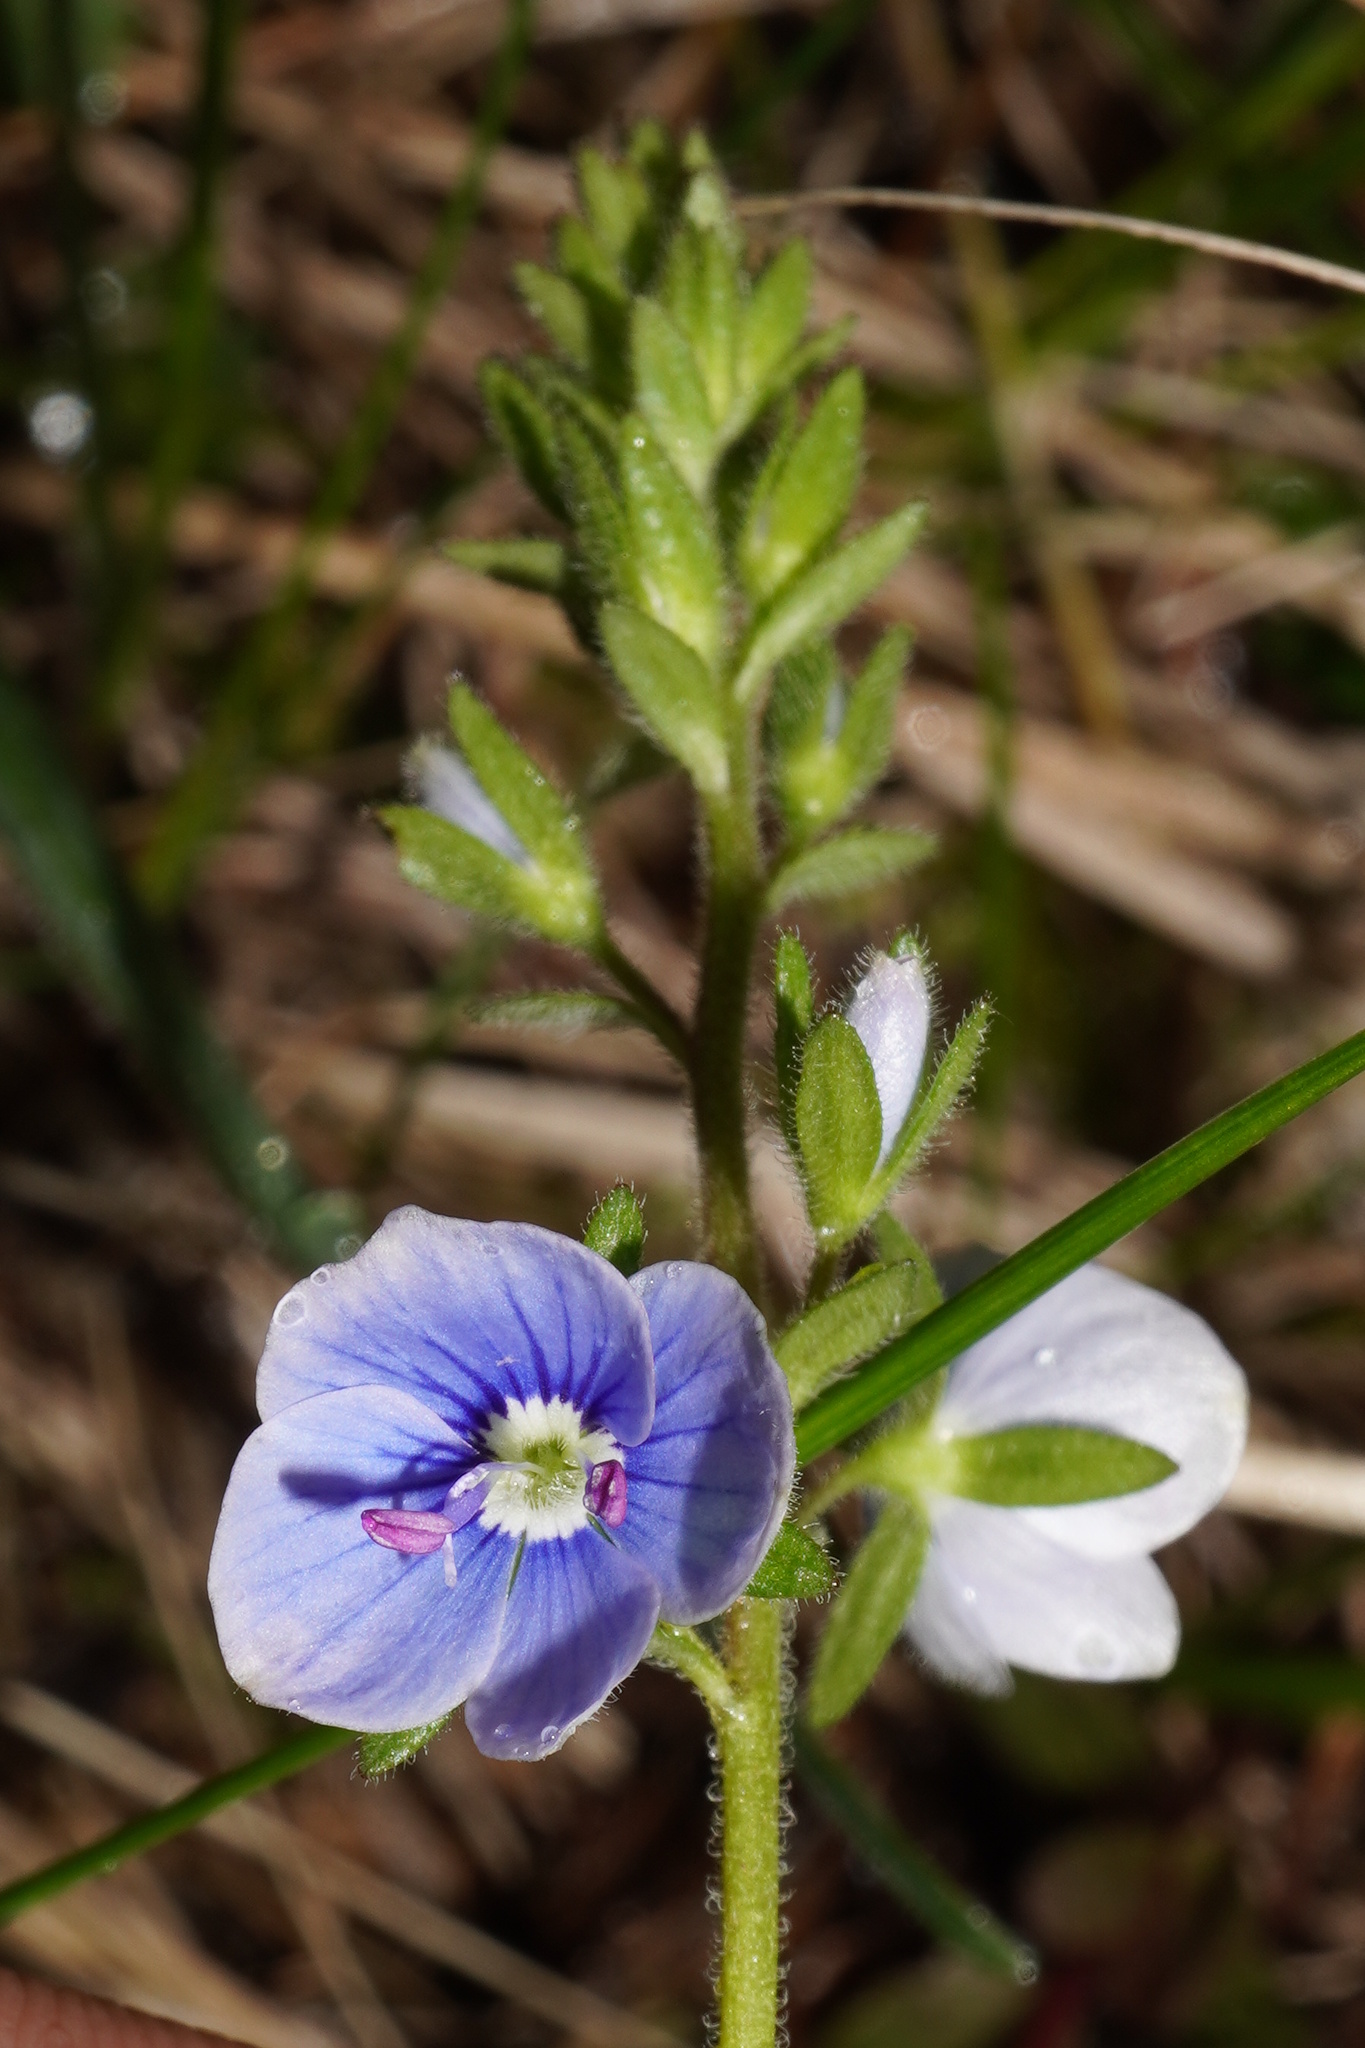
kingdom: Plantae
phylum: Tracheophyta
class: Magnoliopsida
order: Lamiales
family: Plantaginaceae
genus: Veronica
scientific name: Veronica chamaedrys
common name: Germander speedwell
